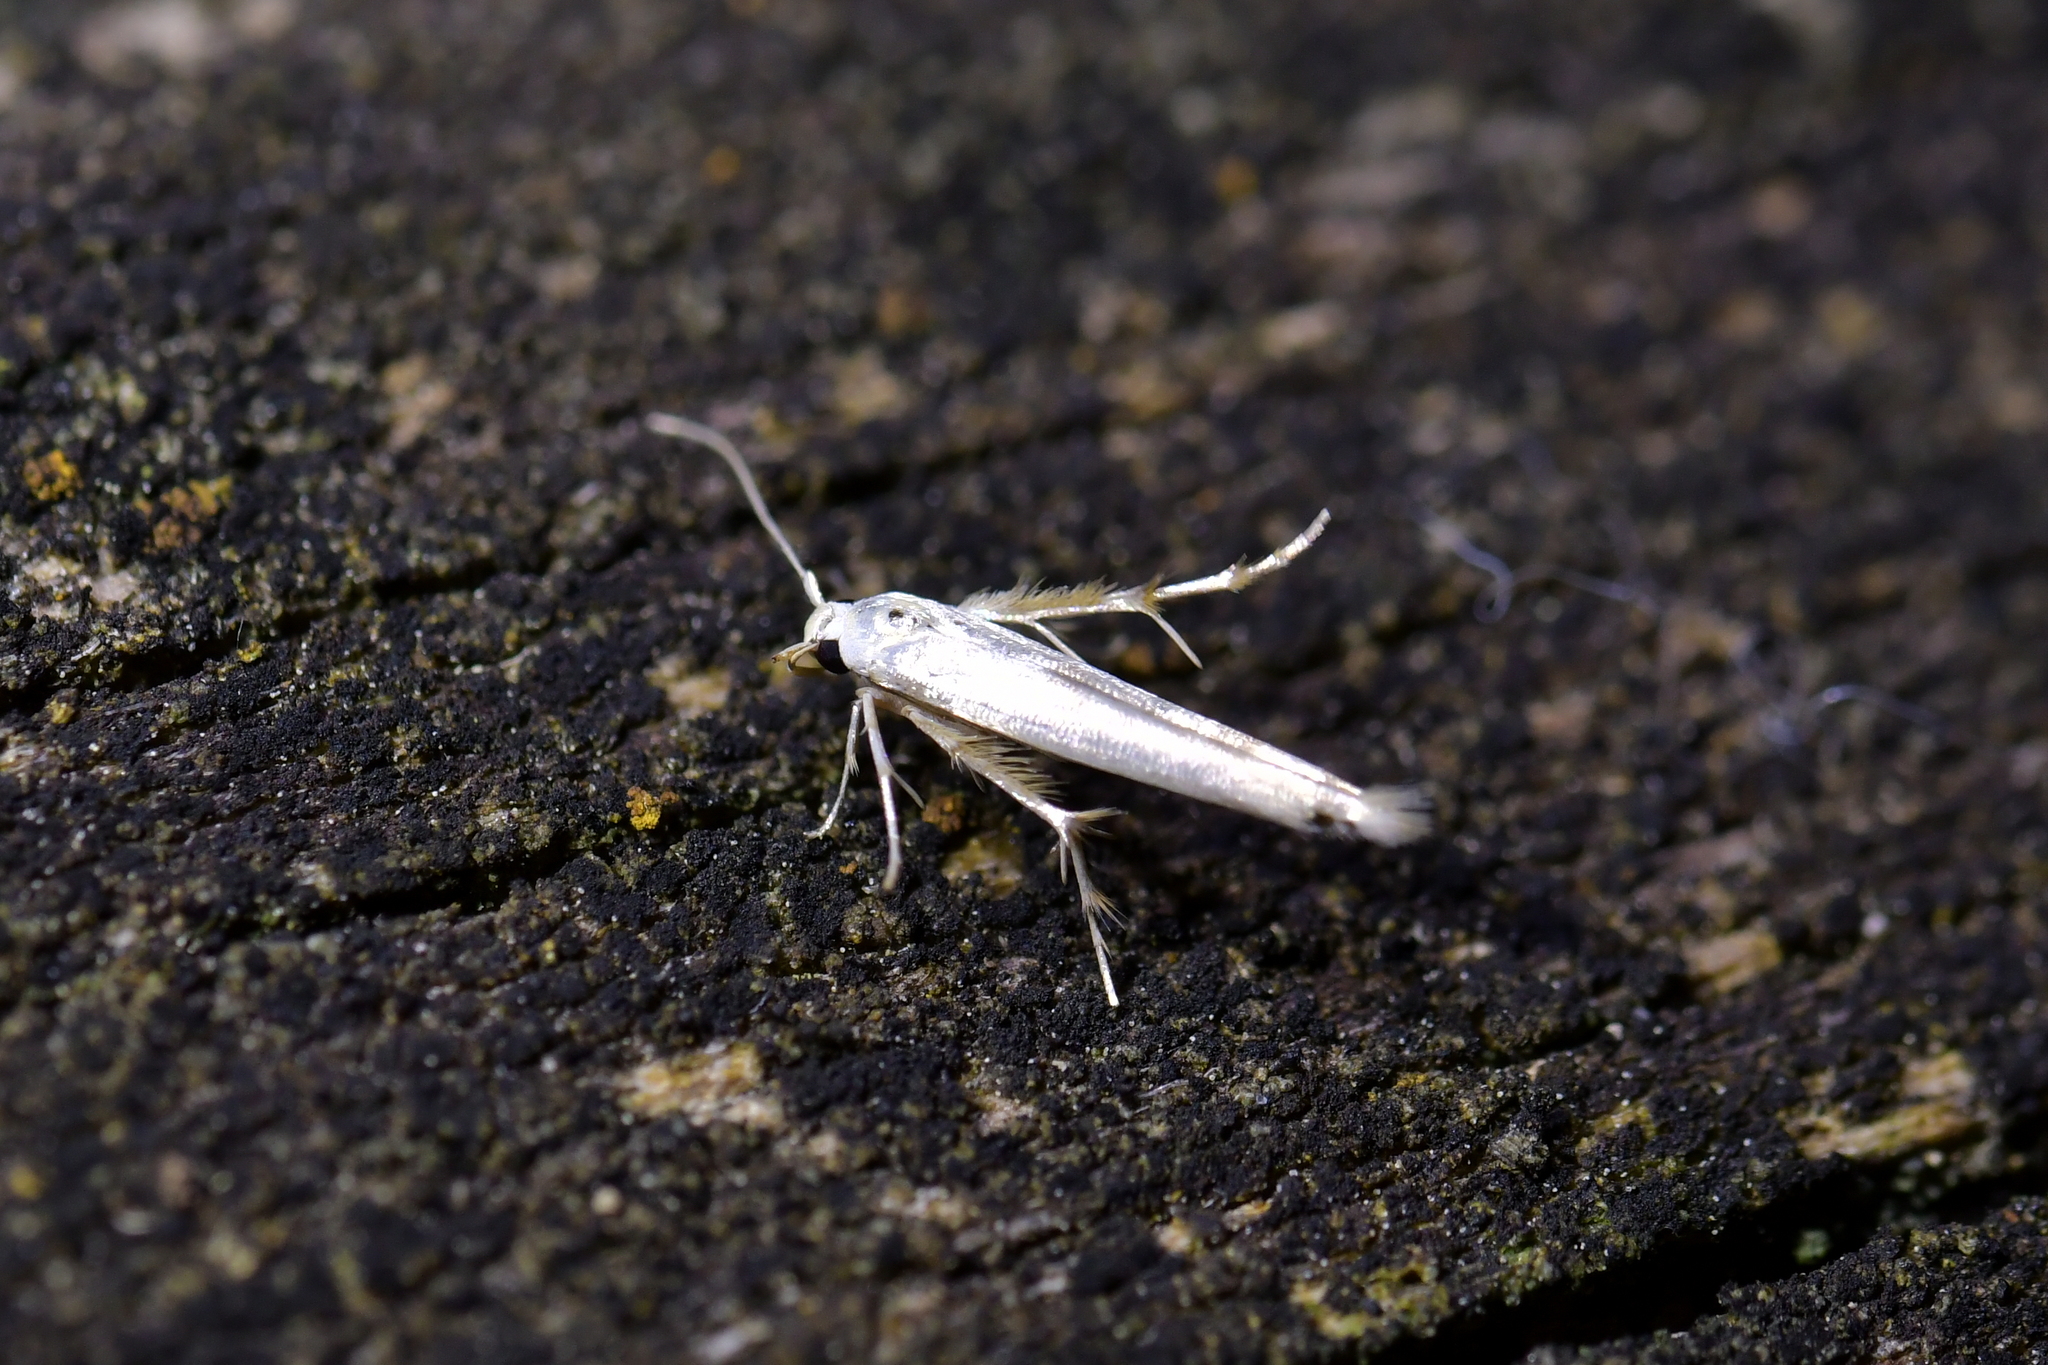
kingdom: Animalia
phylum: Arthropoda
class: Insecta
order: Lepidoptera
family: Stathmopodidae
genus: Stathmopoda
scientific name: Stathmopoda horticola
